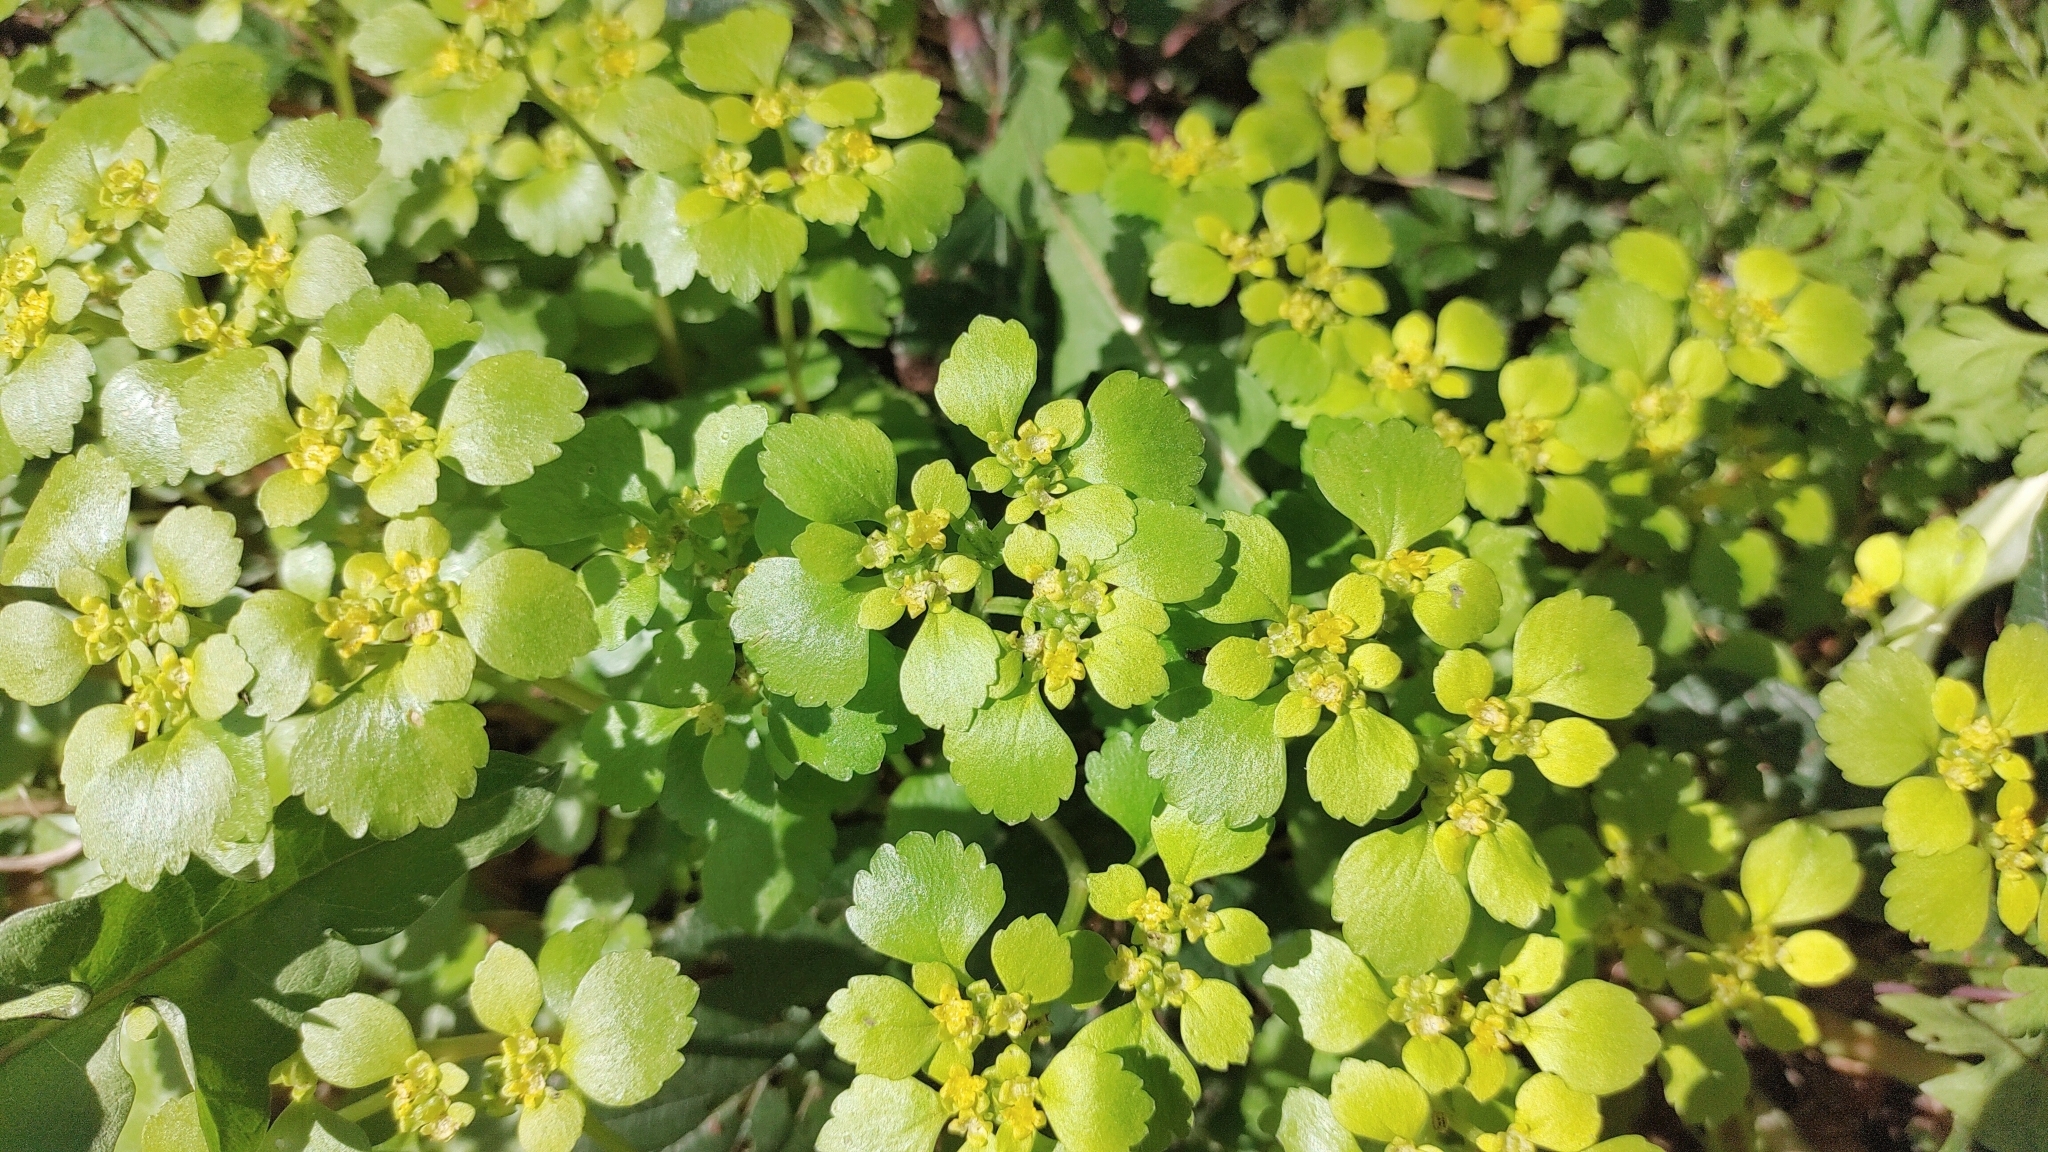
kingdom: Plantae
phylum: Tracheophyta
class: Magnoliopsida
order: Saxifragales
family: Saxifragaceae
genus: Chrysosplenium
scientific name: Chrysosplenium alternifolium
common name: Alternate-leaved golden-saxifrage
